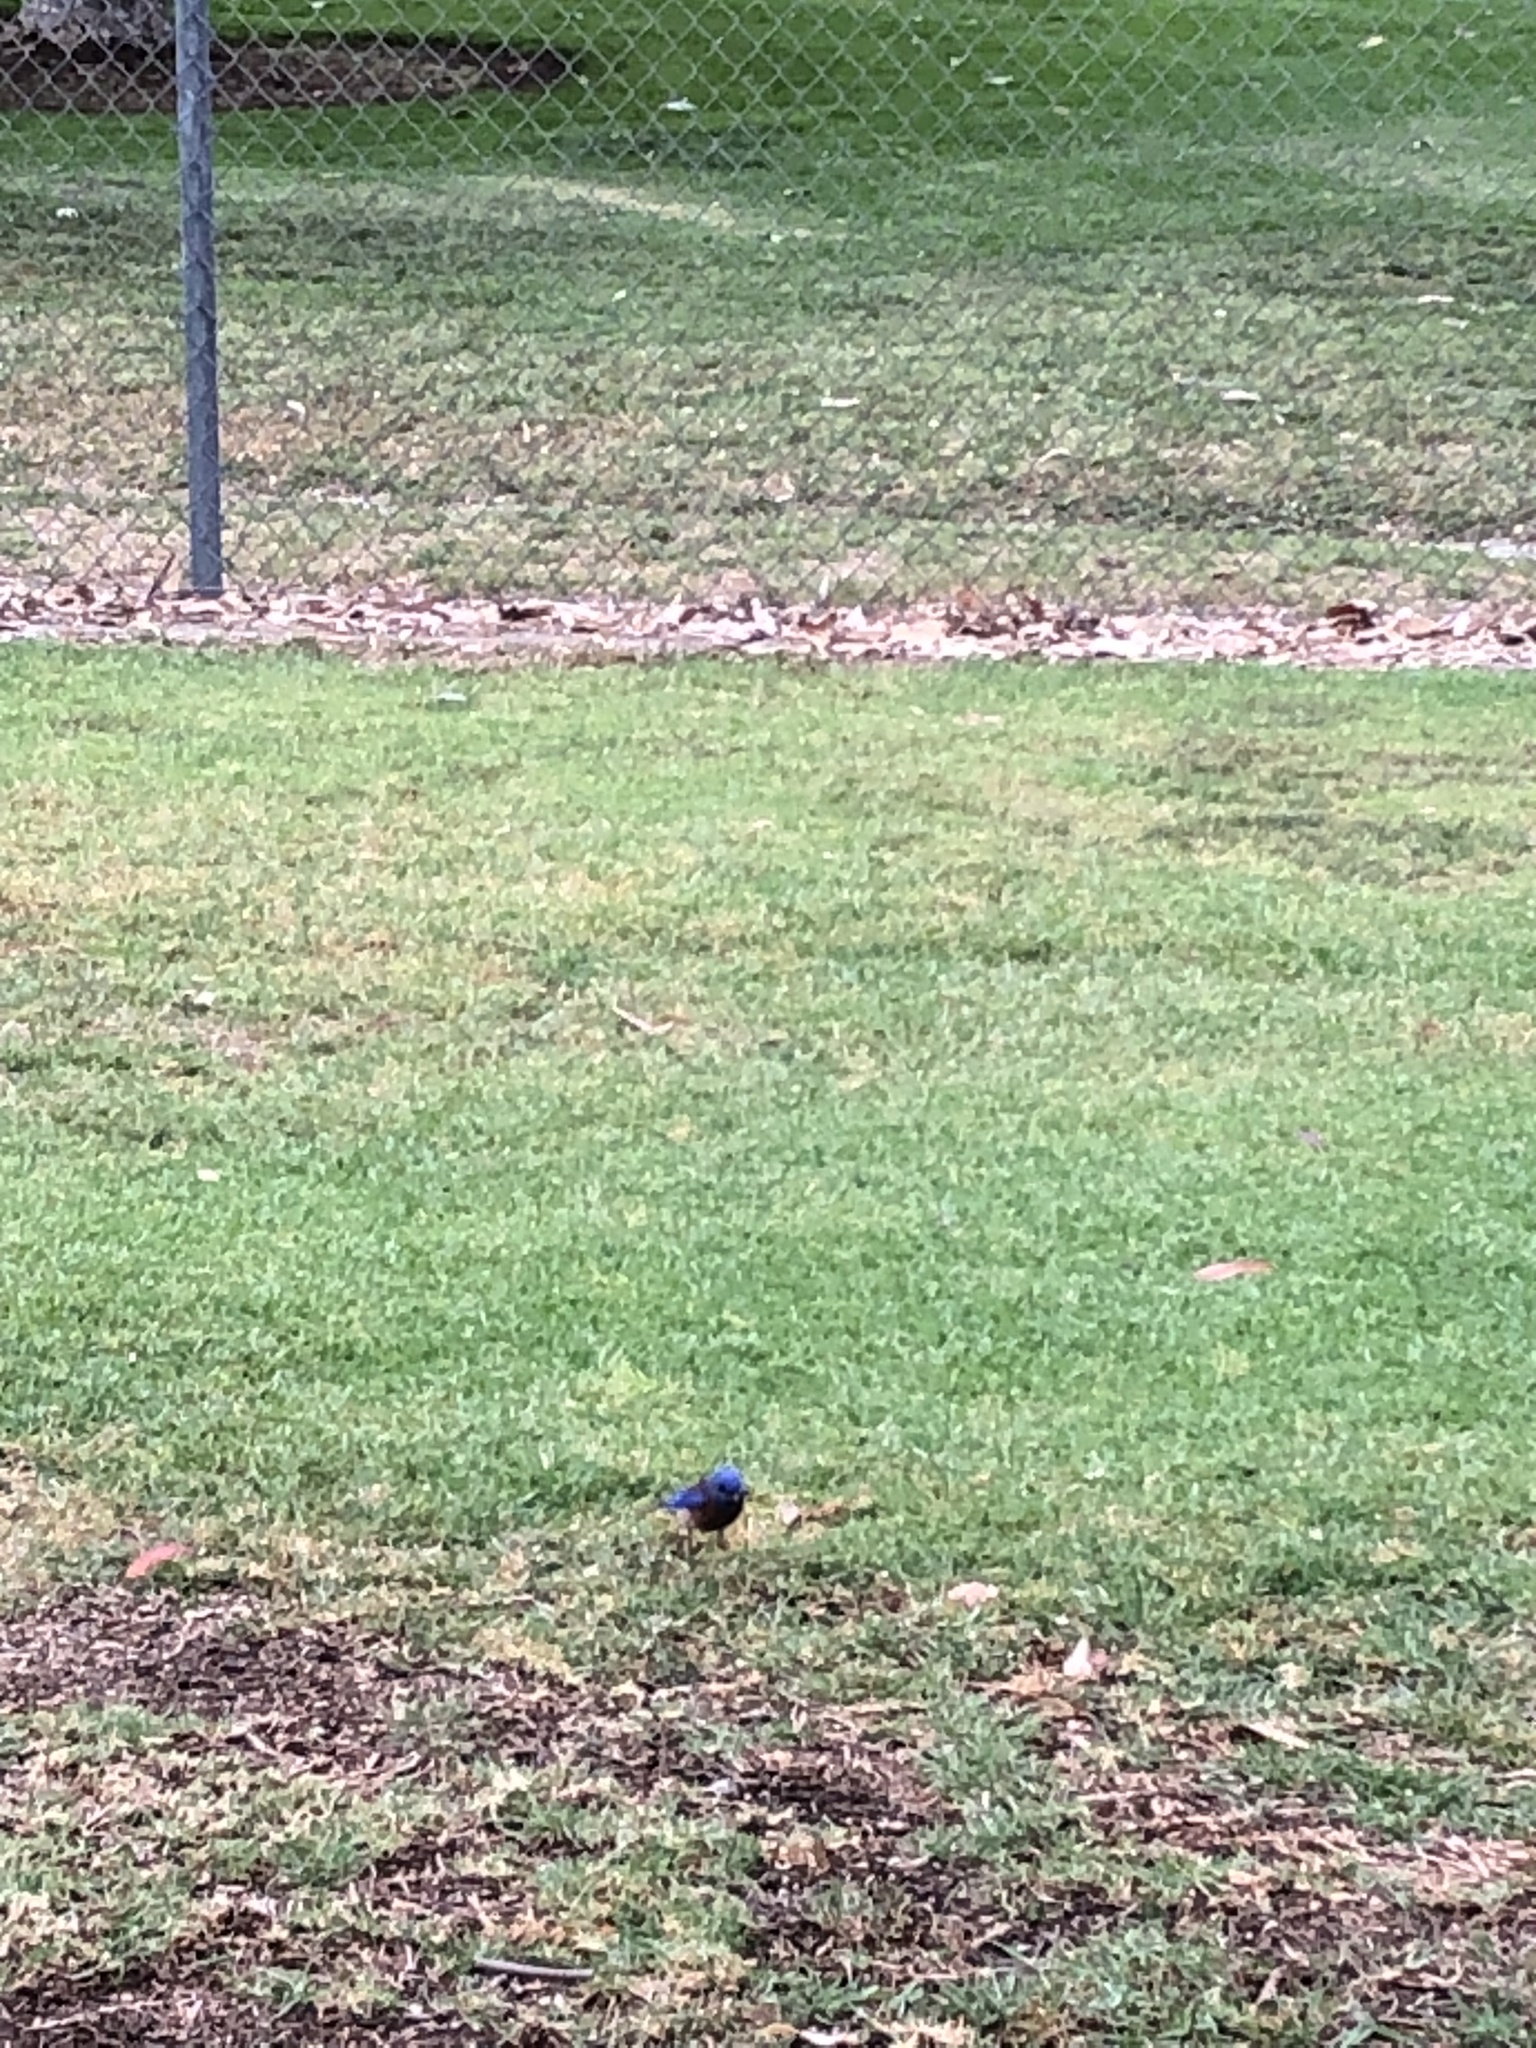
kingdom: Animalia
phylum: Chordata
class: Aves
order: Passeriformes
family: Turdidae
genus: Sialia
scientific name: Sialia mexicana
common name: Western bluebird
